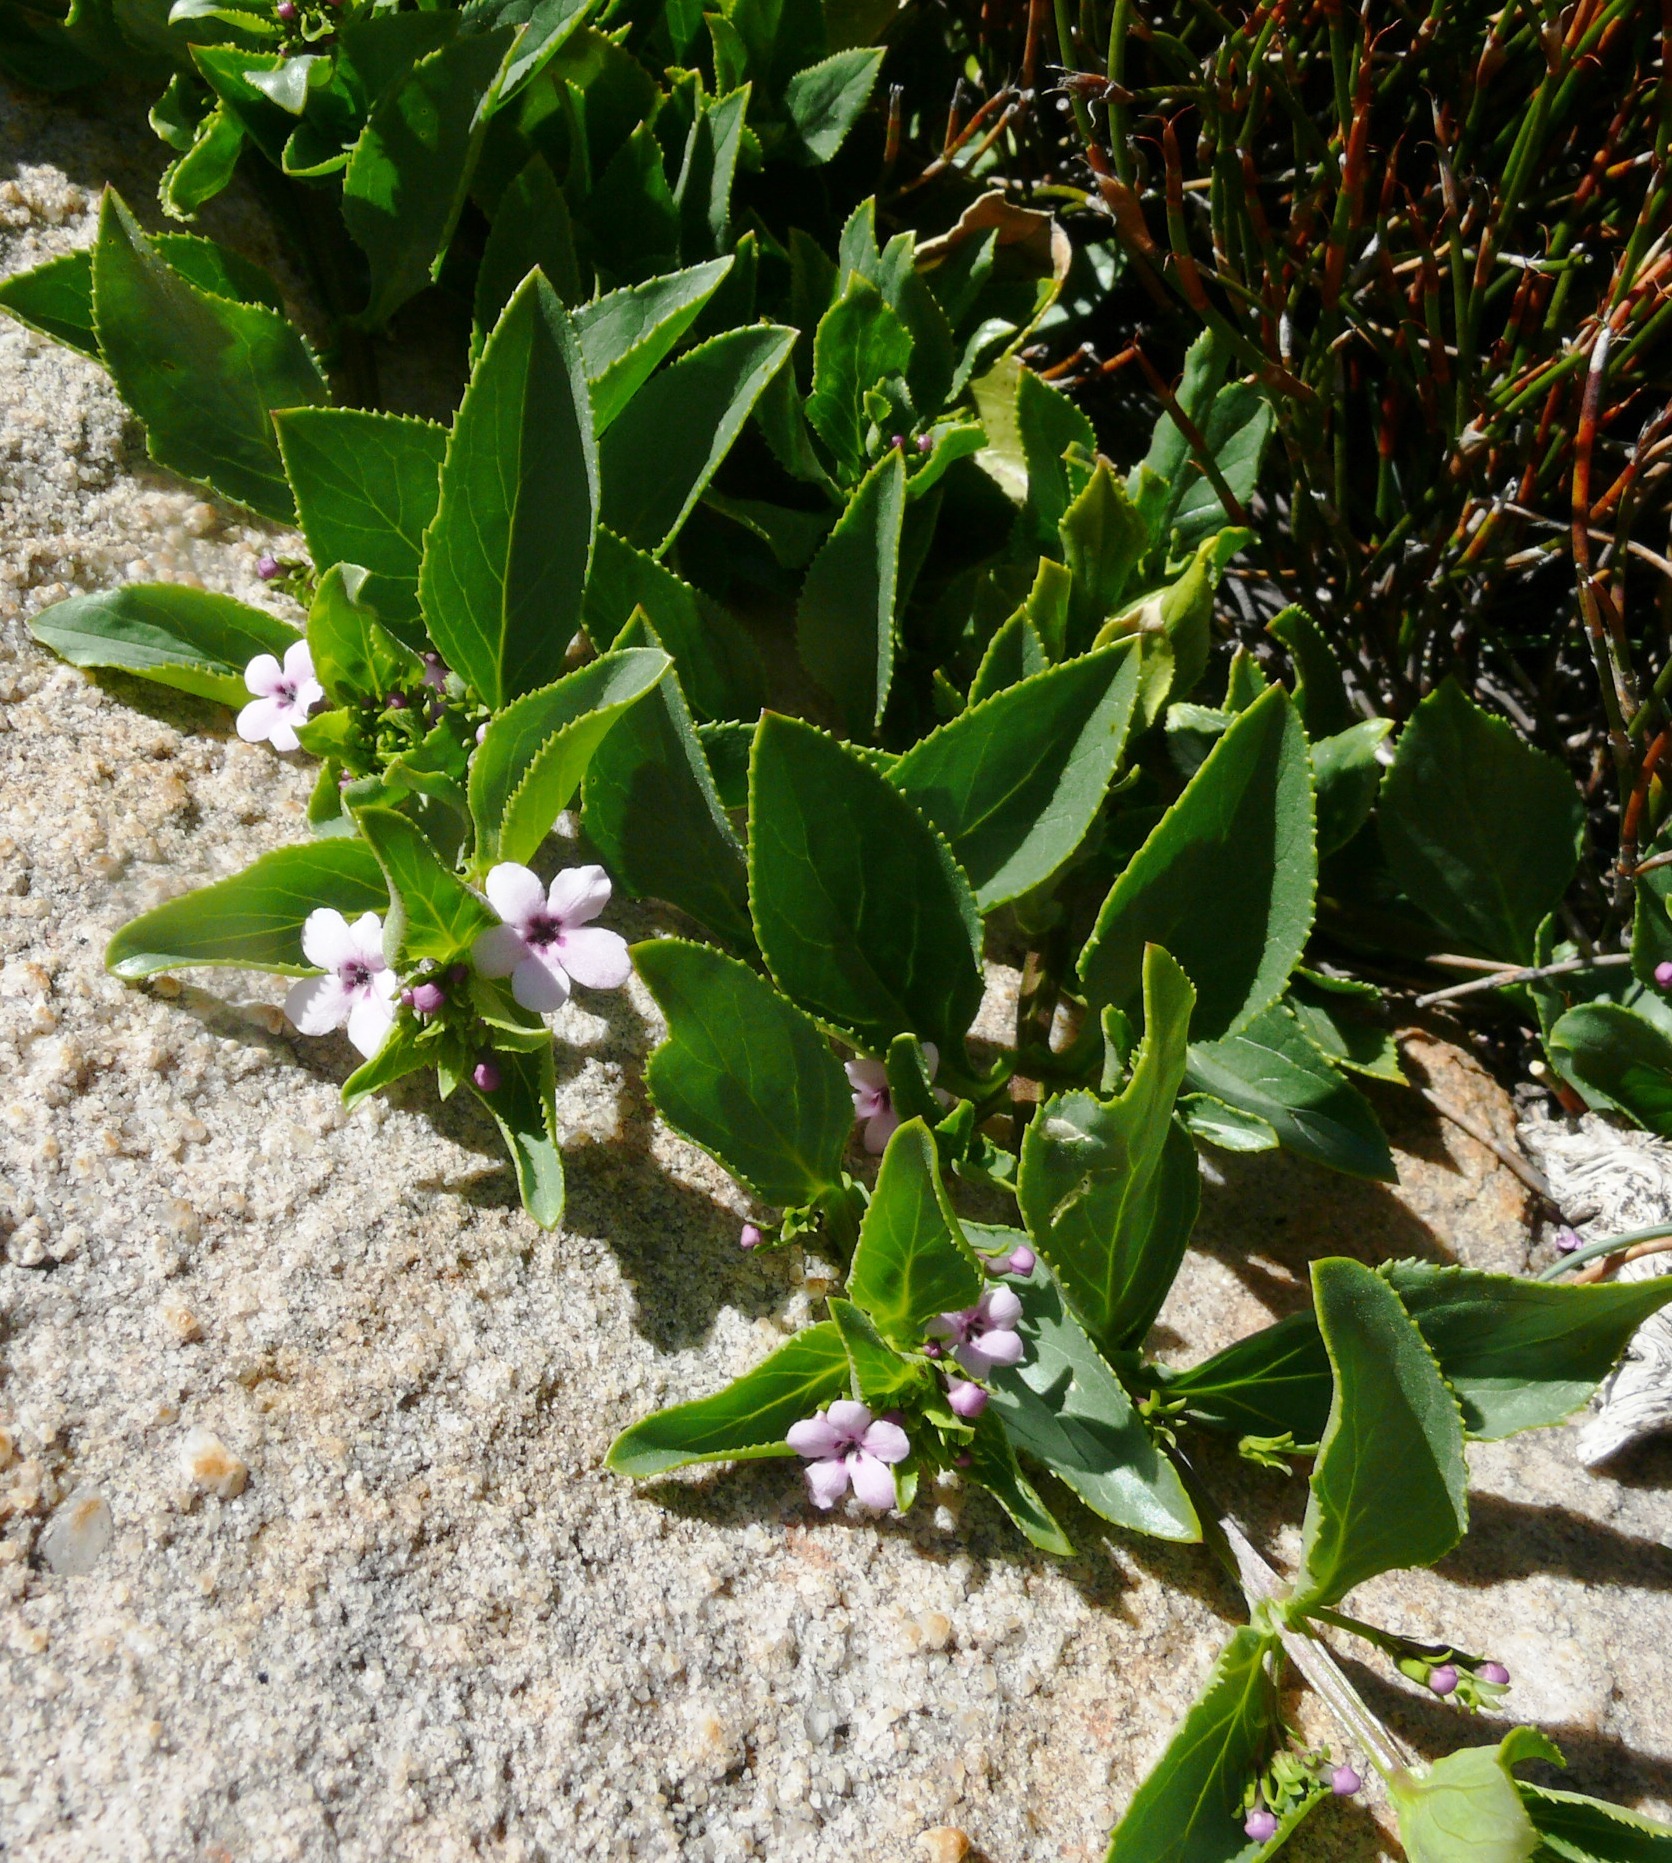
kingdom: Plantae
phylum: Tracheophyta
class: Magnoliopsida
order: Lamiales
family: Scrophulariaceae
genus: Teedia
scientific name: Teedia lucida
